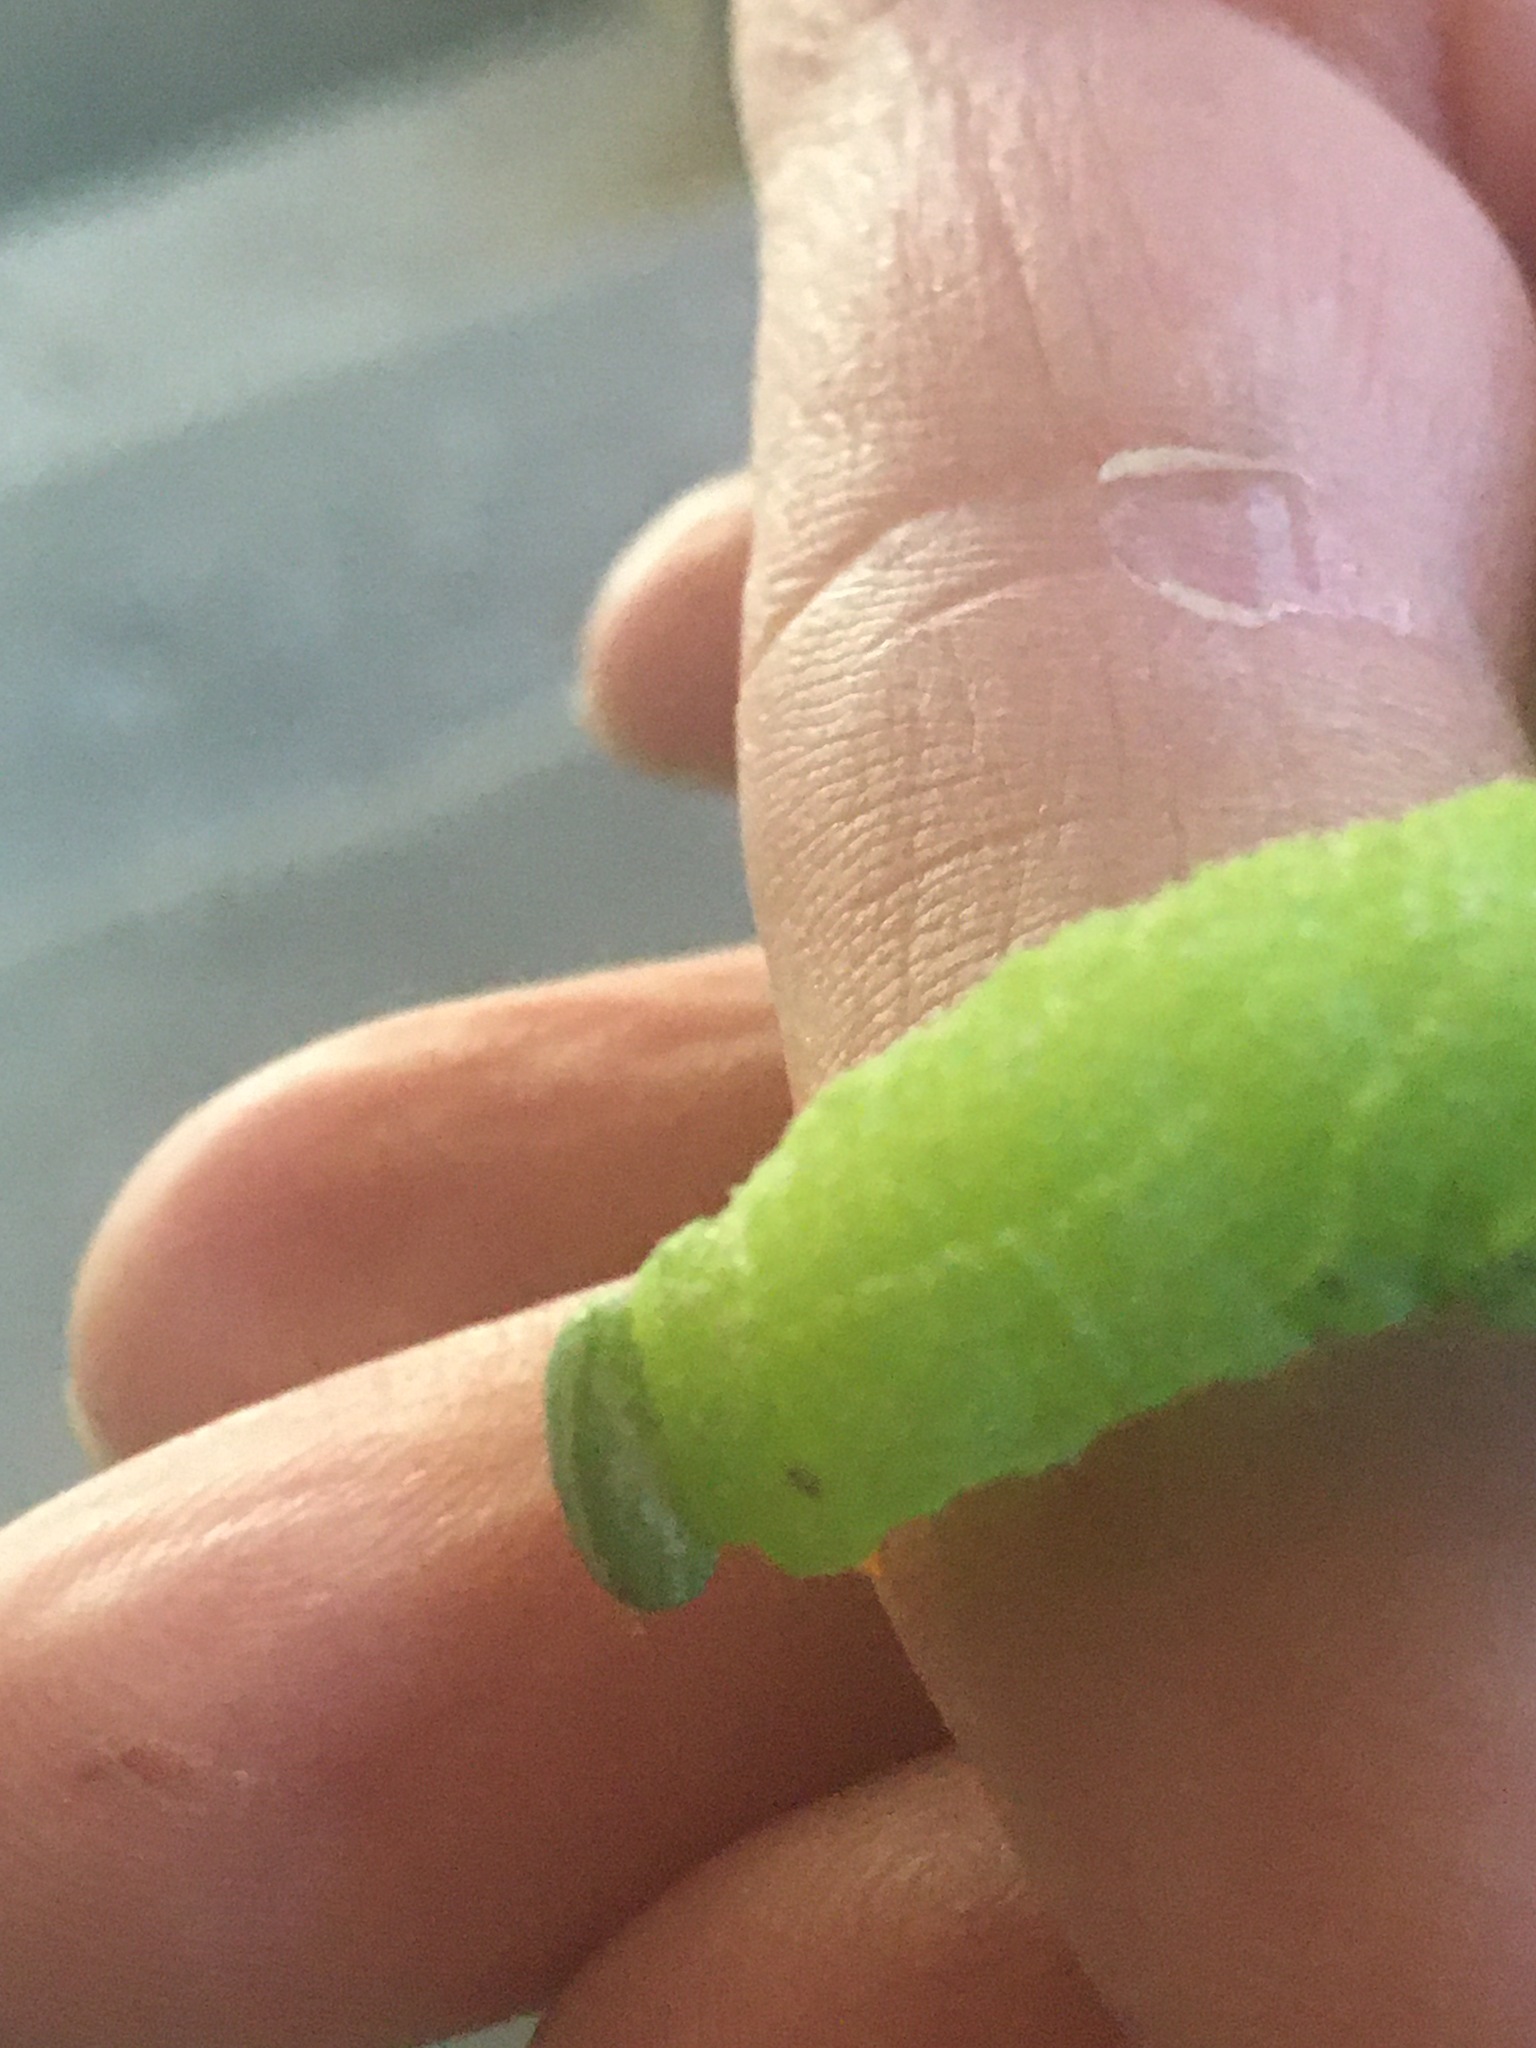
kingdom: Animalia
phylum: Arthropoda
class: Insecta
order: Lepidoptera
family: Sphingidae
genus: Paonias
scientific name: Paonias excaecata
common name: Blind-eyed sphinx
